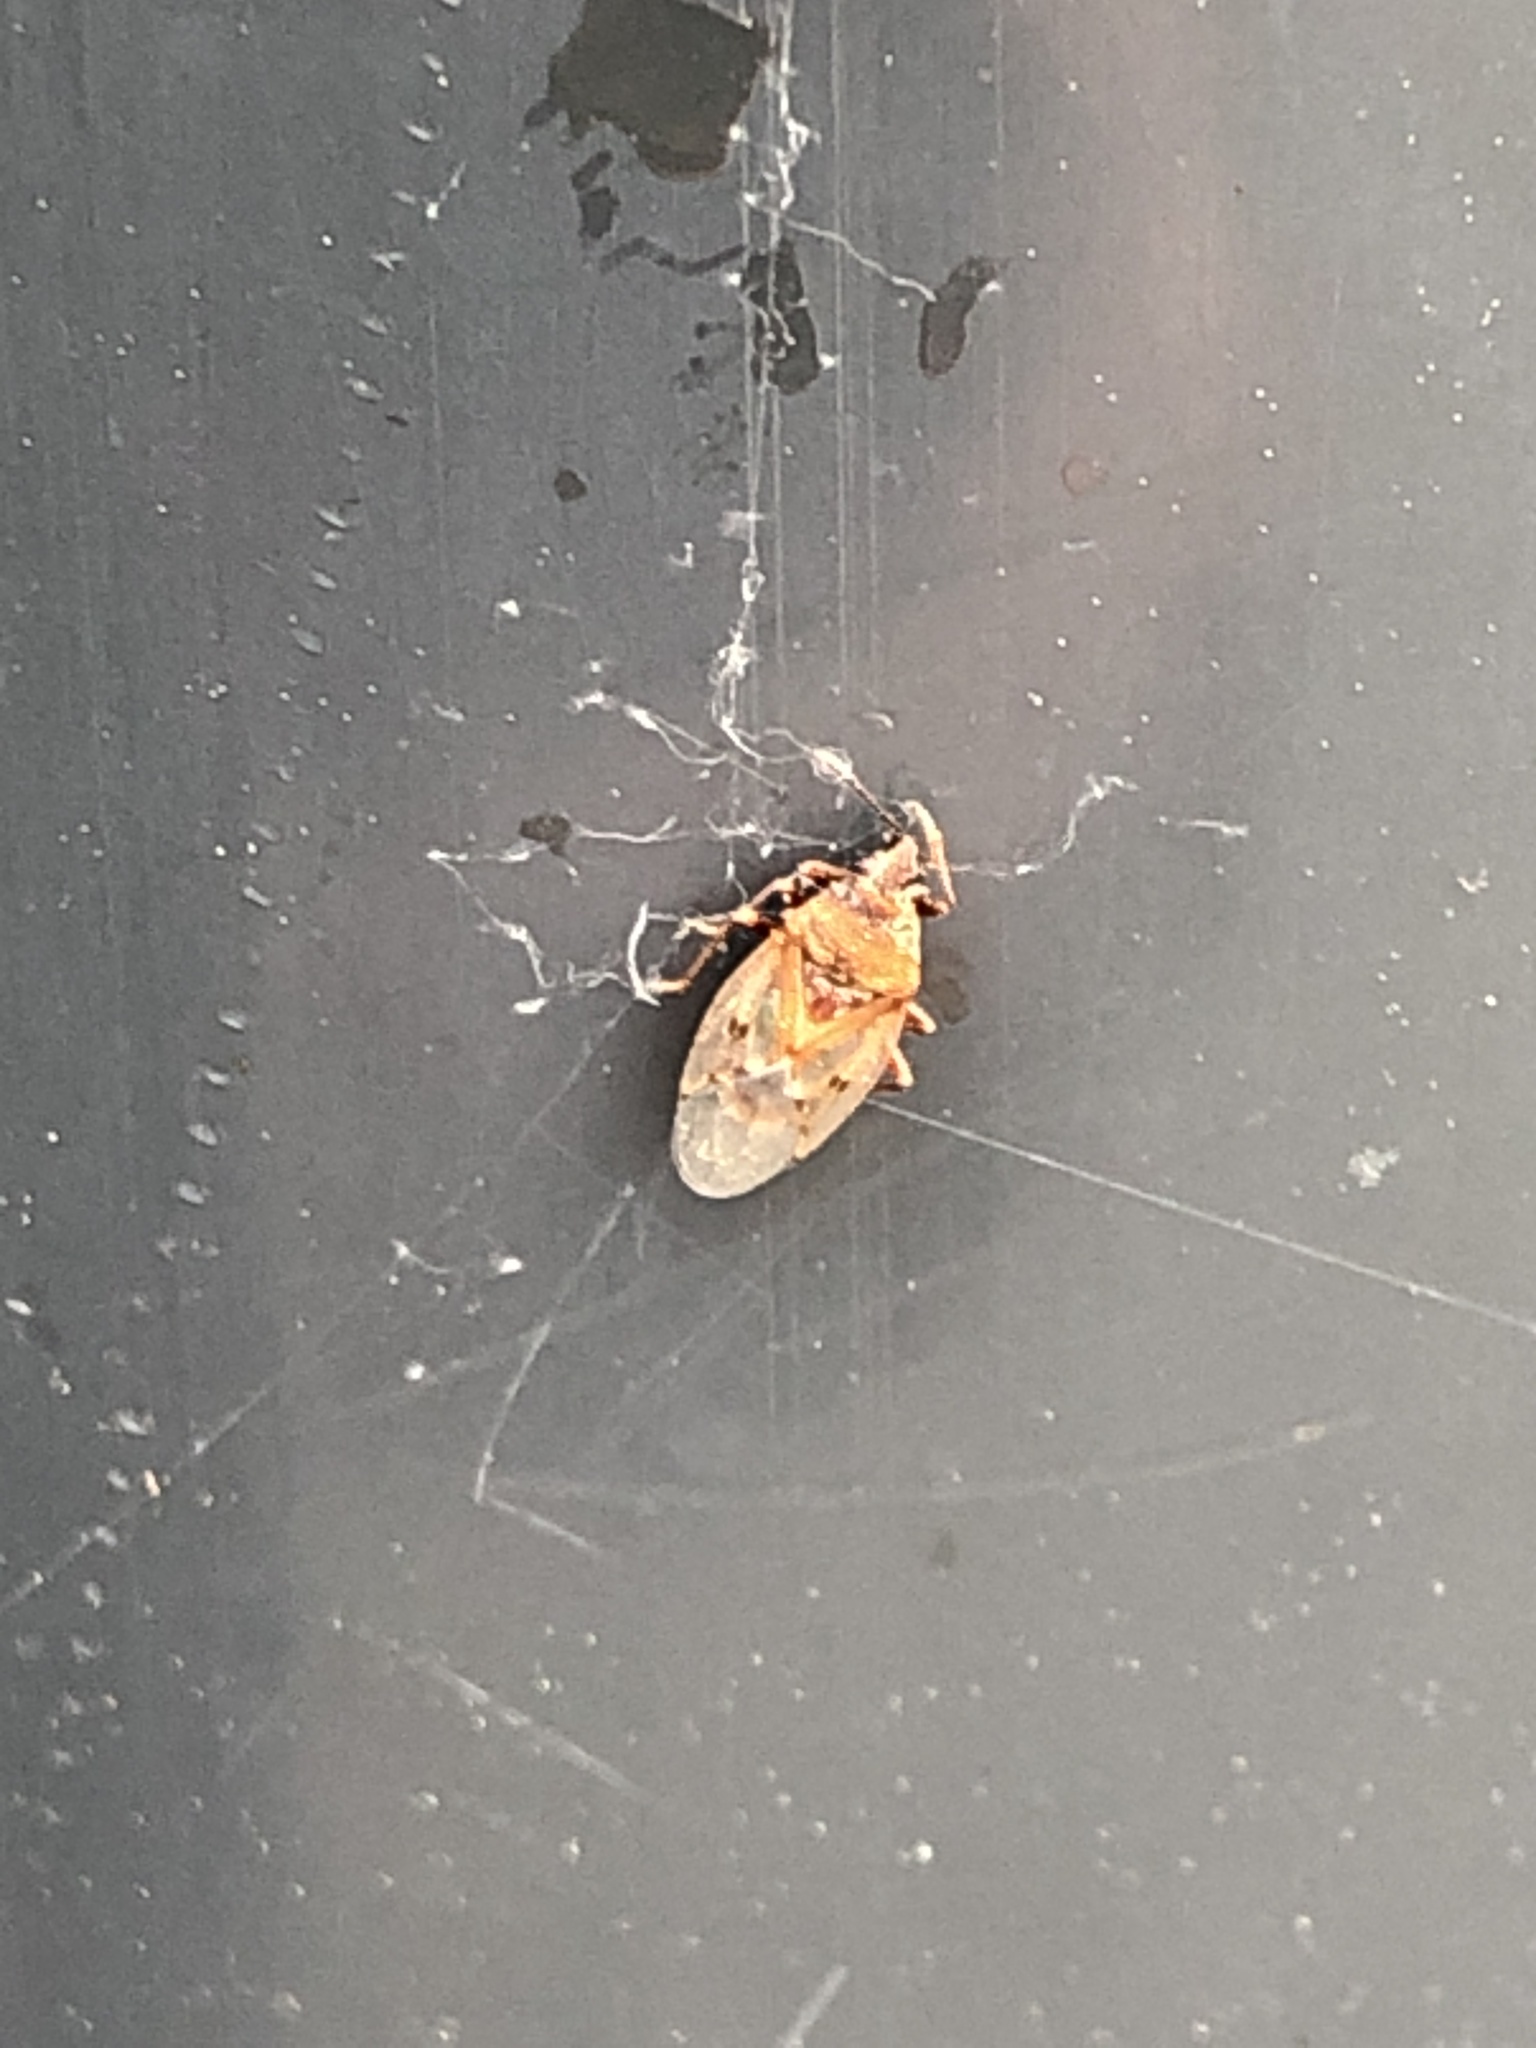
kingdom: Animalia
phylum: Arthropoda
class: Insecta
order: Hemiptera
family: Lygaeidae
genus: Kleidocerys
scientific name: Kleidocerys resedae
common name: Birch catkin bug
